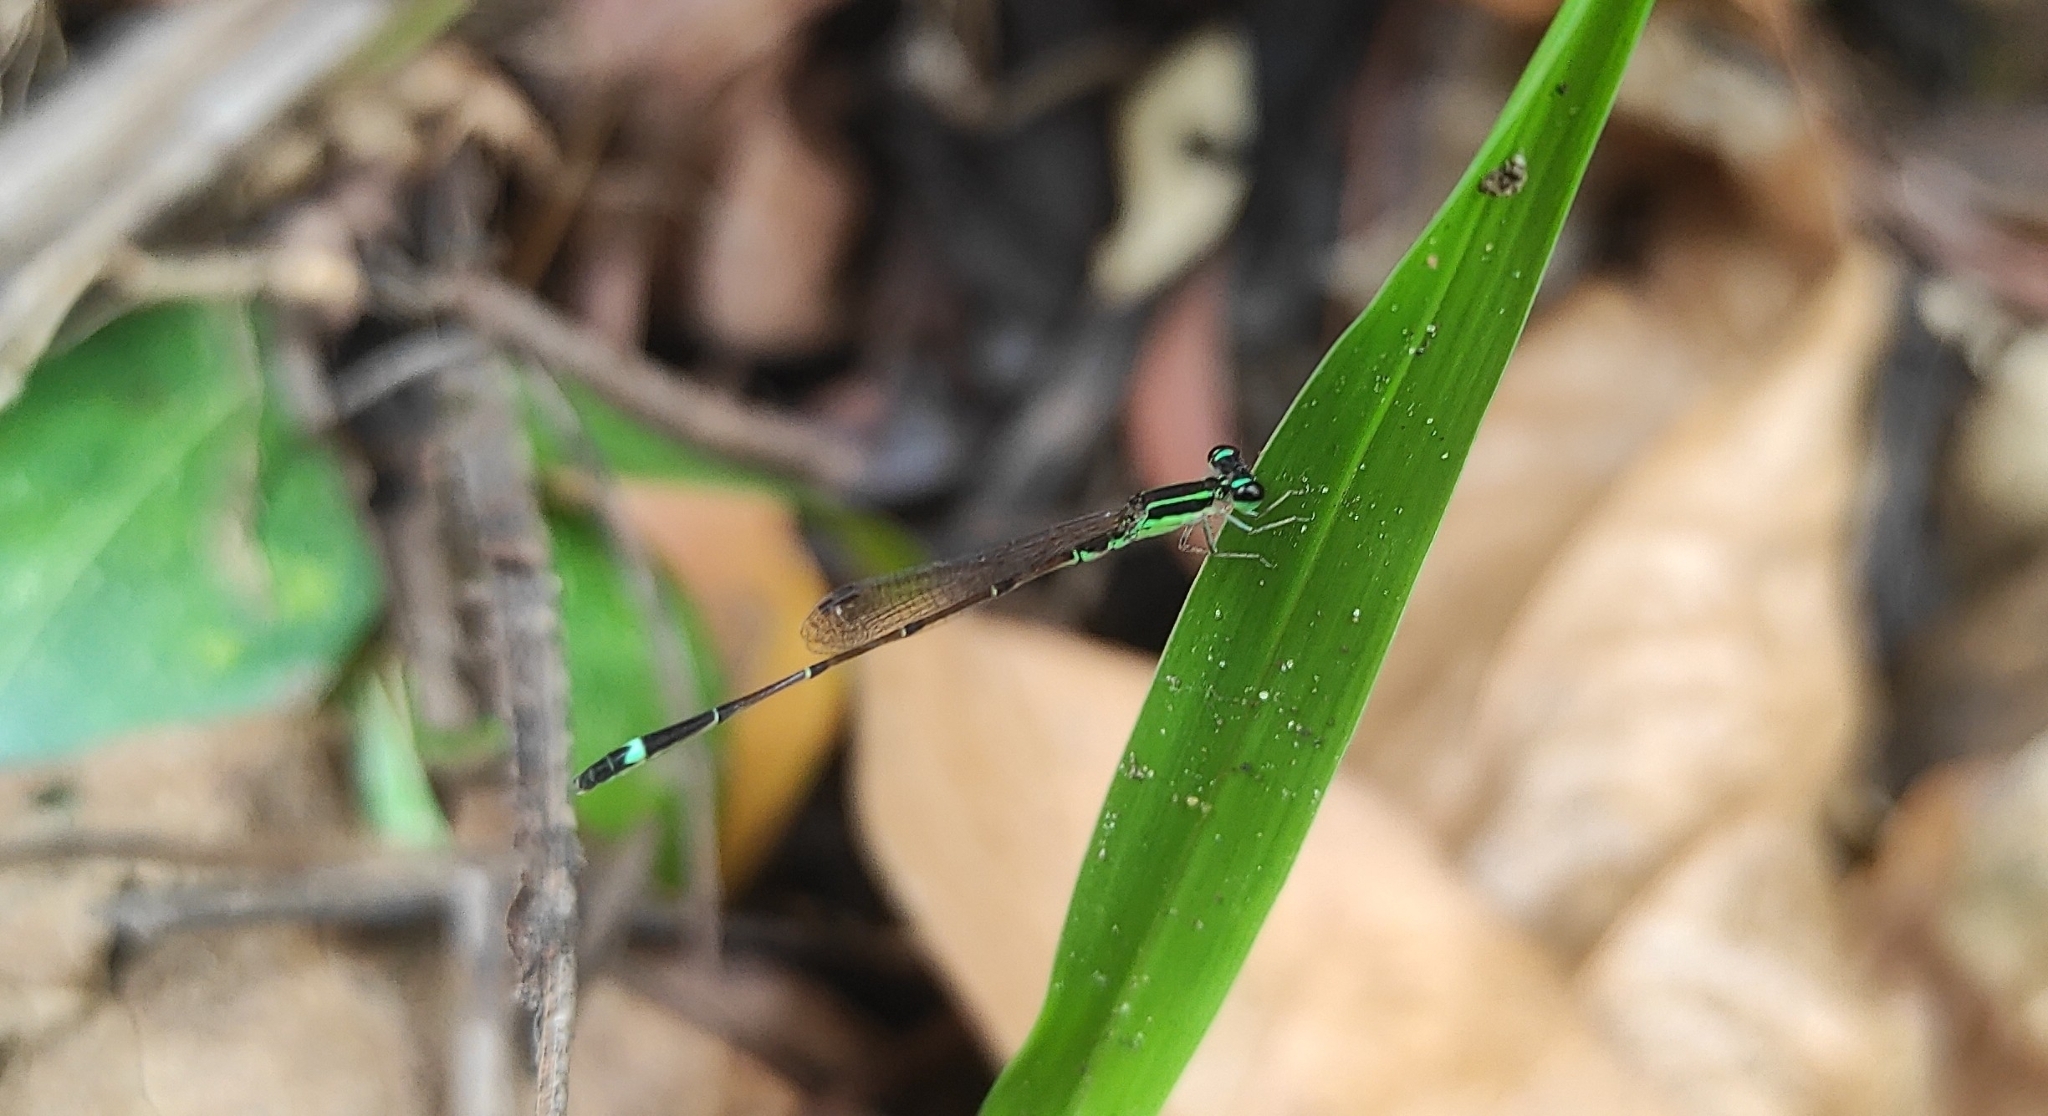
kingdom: Animalia
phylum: Arthropoda
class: Insecta
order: Odonata
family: Coenagrionidae
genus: Mortonagrion
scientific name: Mortonagrion varralli
